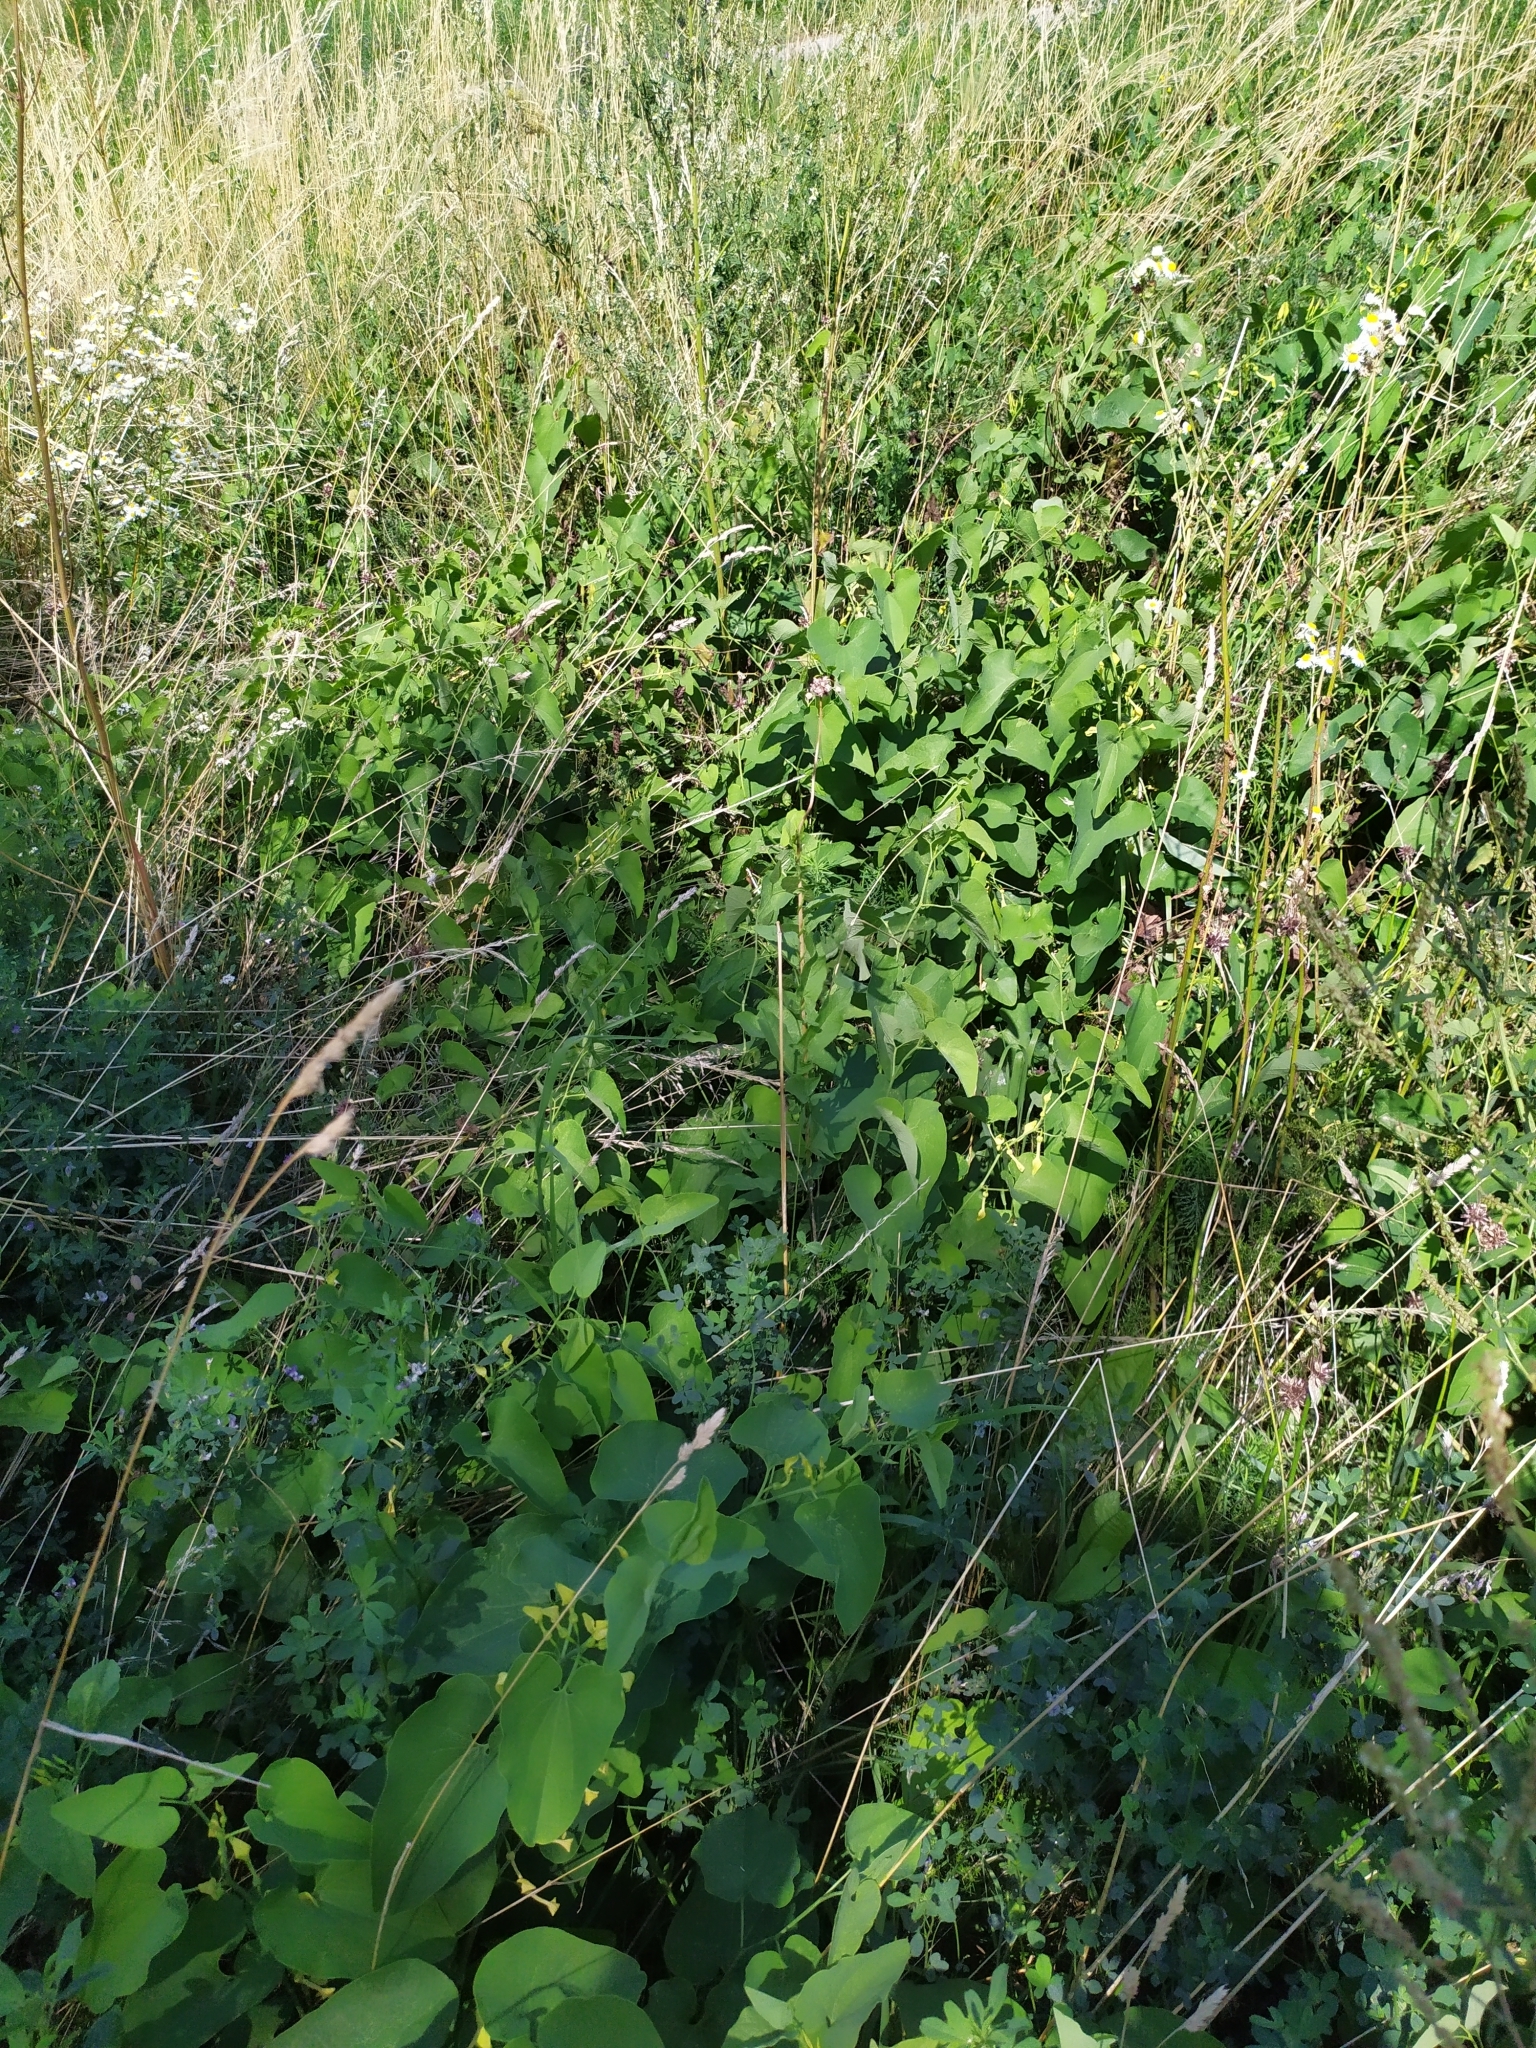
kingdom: Plantae
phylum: Tracheophyta
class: Magnoliopsida
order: Piperales
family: Aristolochiaceae
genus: Aristolochia
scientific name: Aristolochia clematitis
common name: Birthwort
